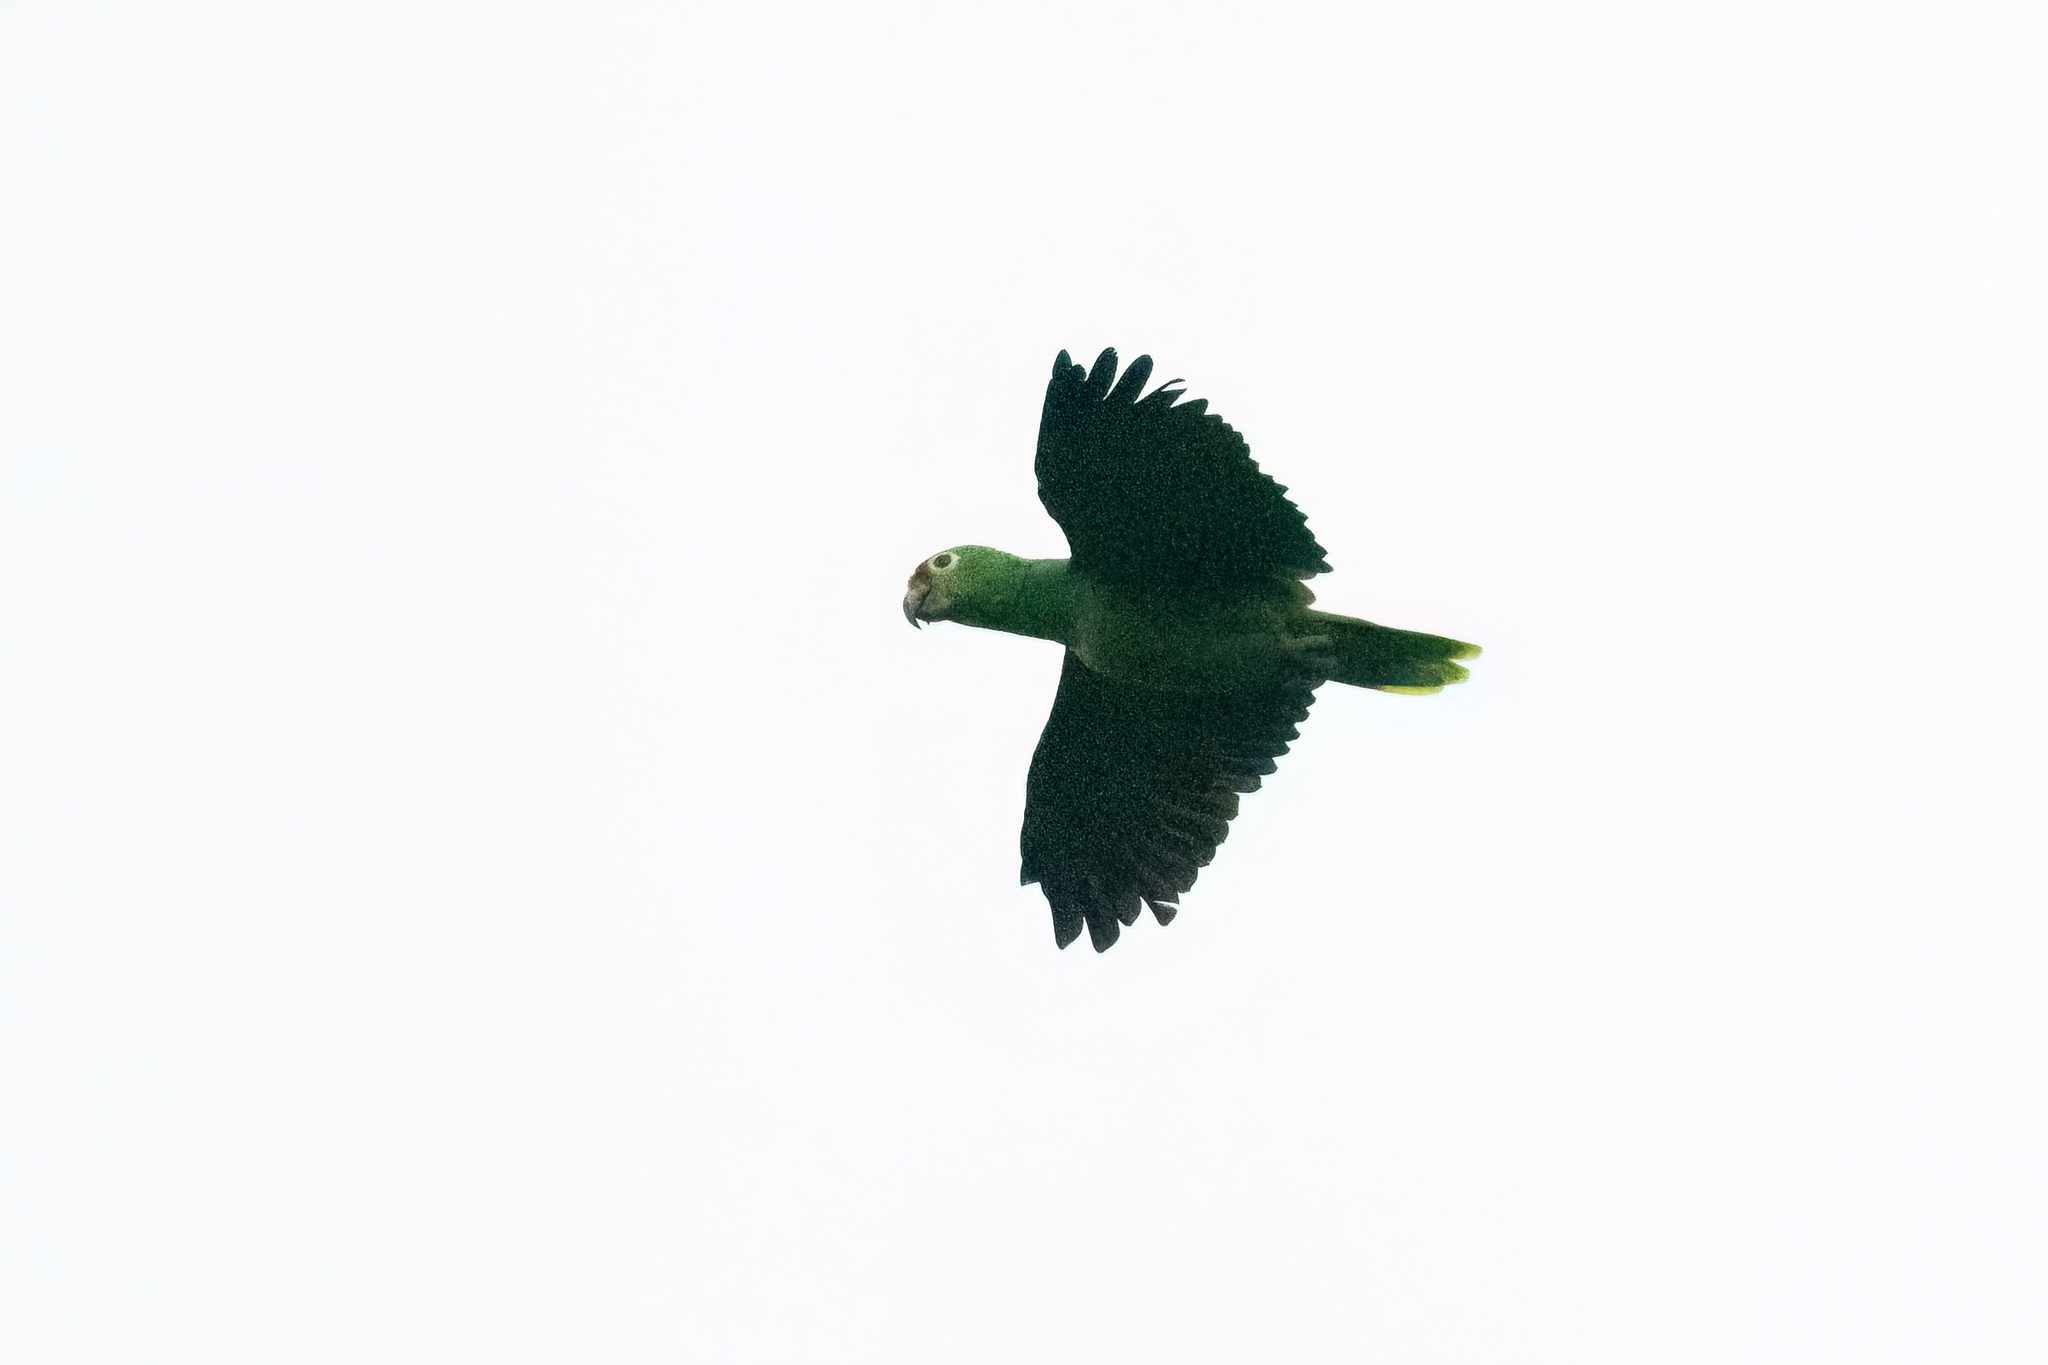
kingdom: Animalia
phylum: Chordata
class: Aves
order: Psittaciformes
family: Psittacidae
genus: Amazona
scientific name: Amazona autumnalis
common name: Red-lored amazon
